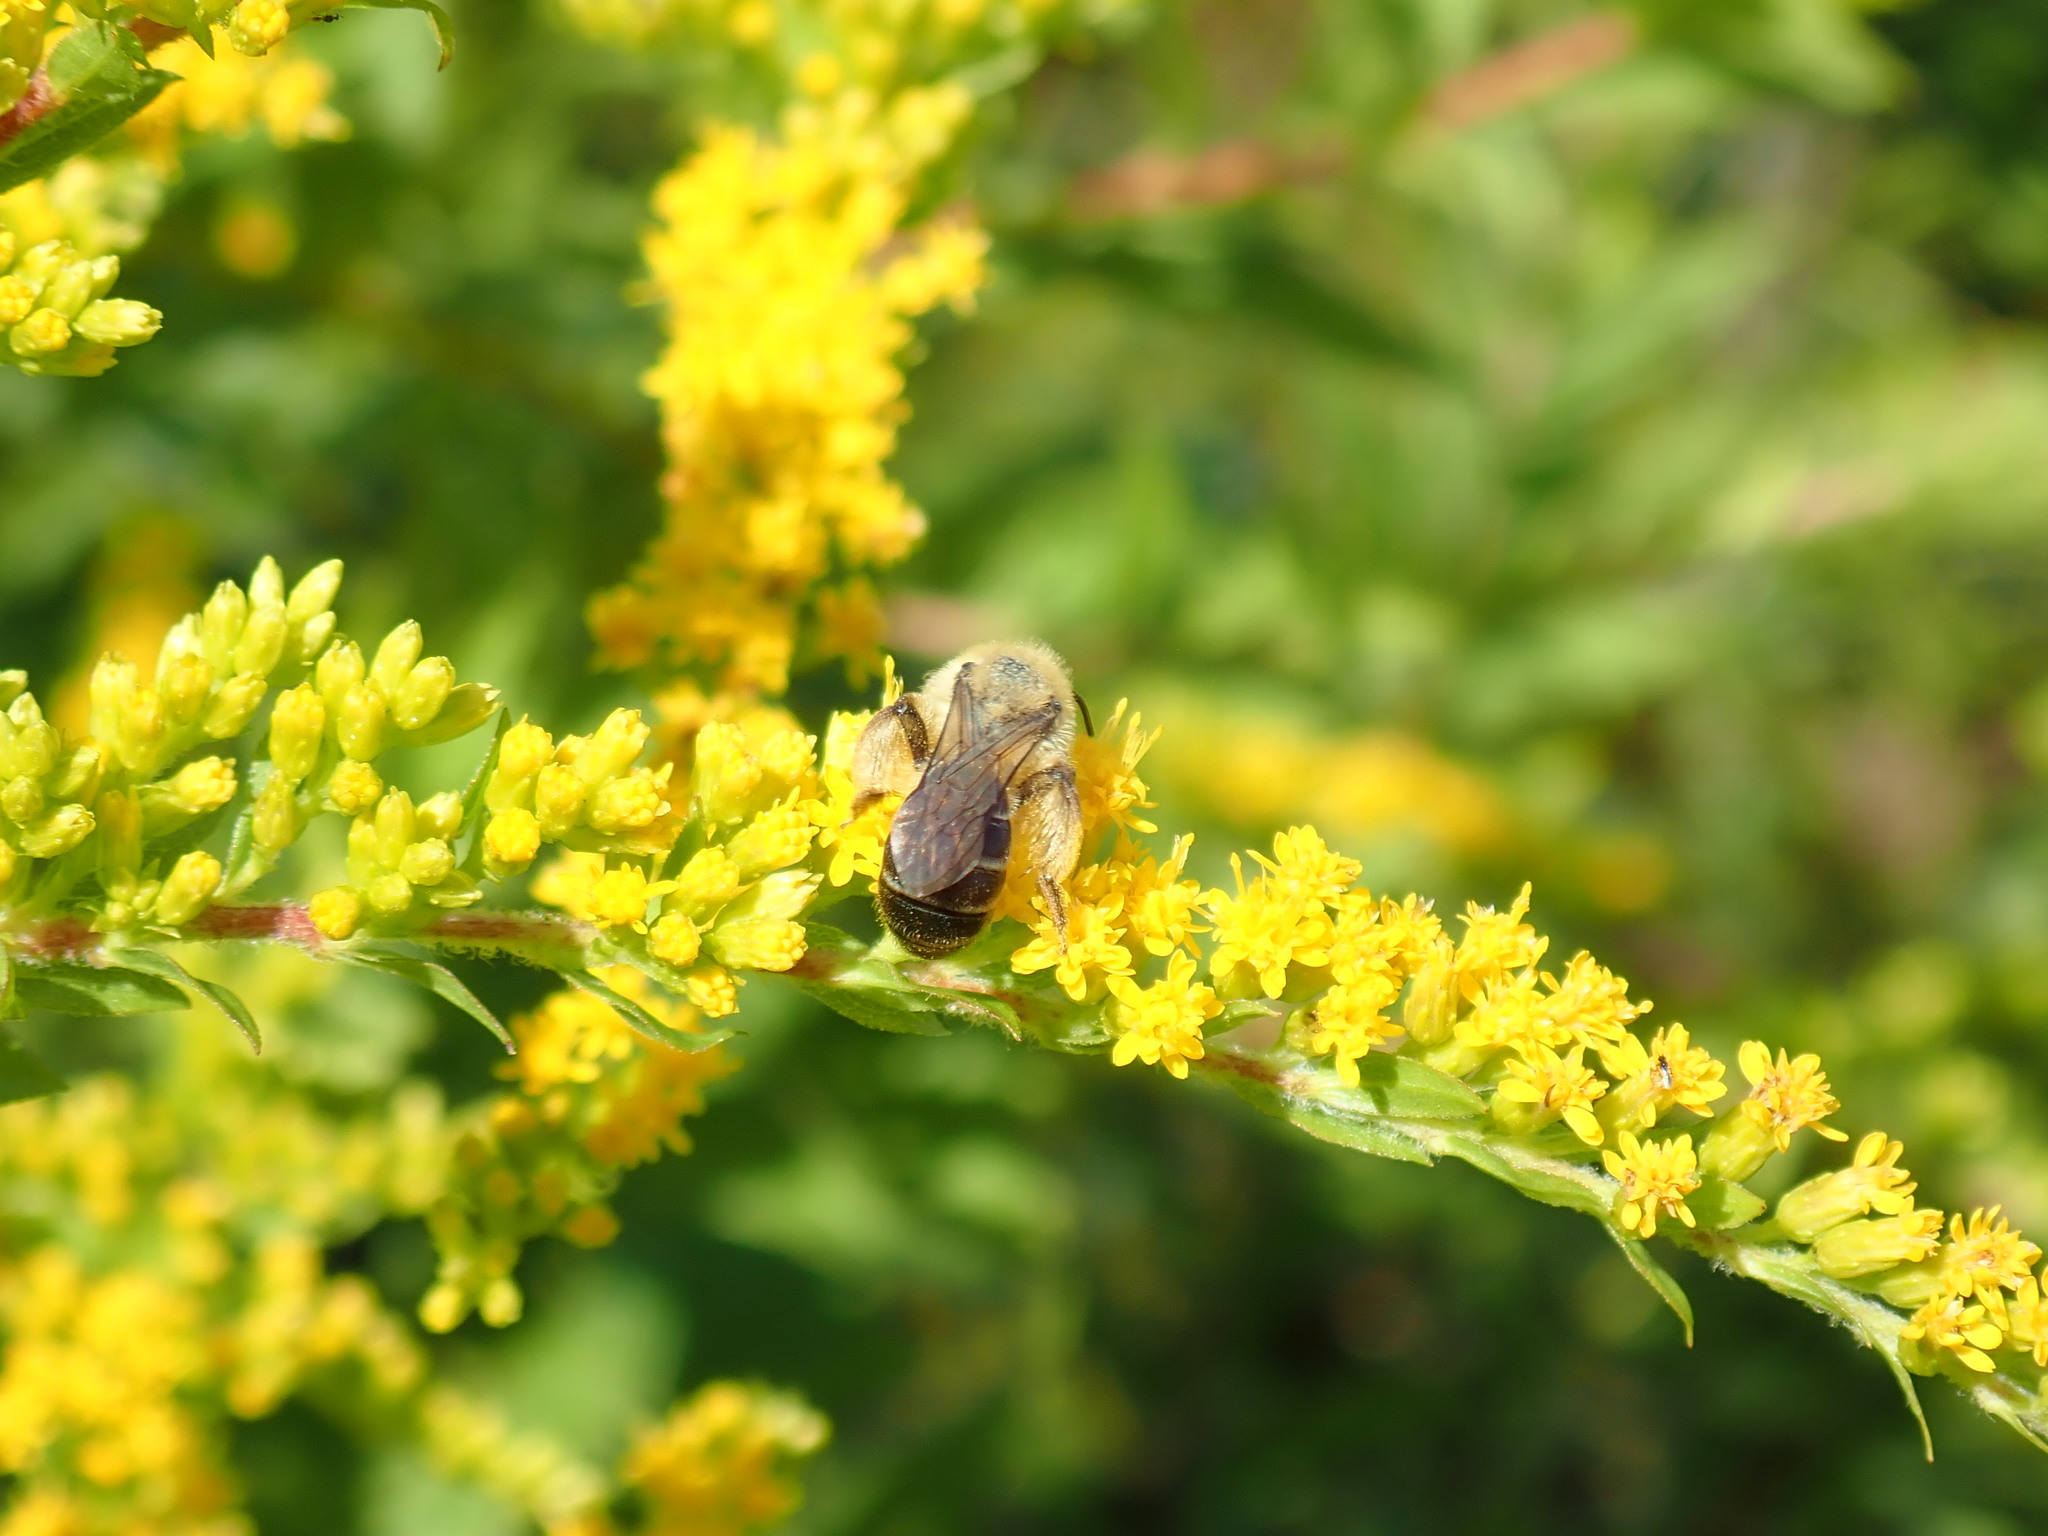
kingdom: Animalia
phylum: Arthropoda
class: Insecta
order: Hymenoptera
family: Andrenidae
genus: Andrena
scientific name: Andrena asteris
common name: Aster mining bee
